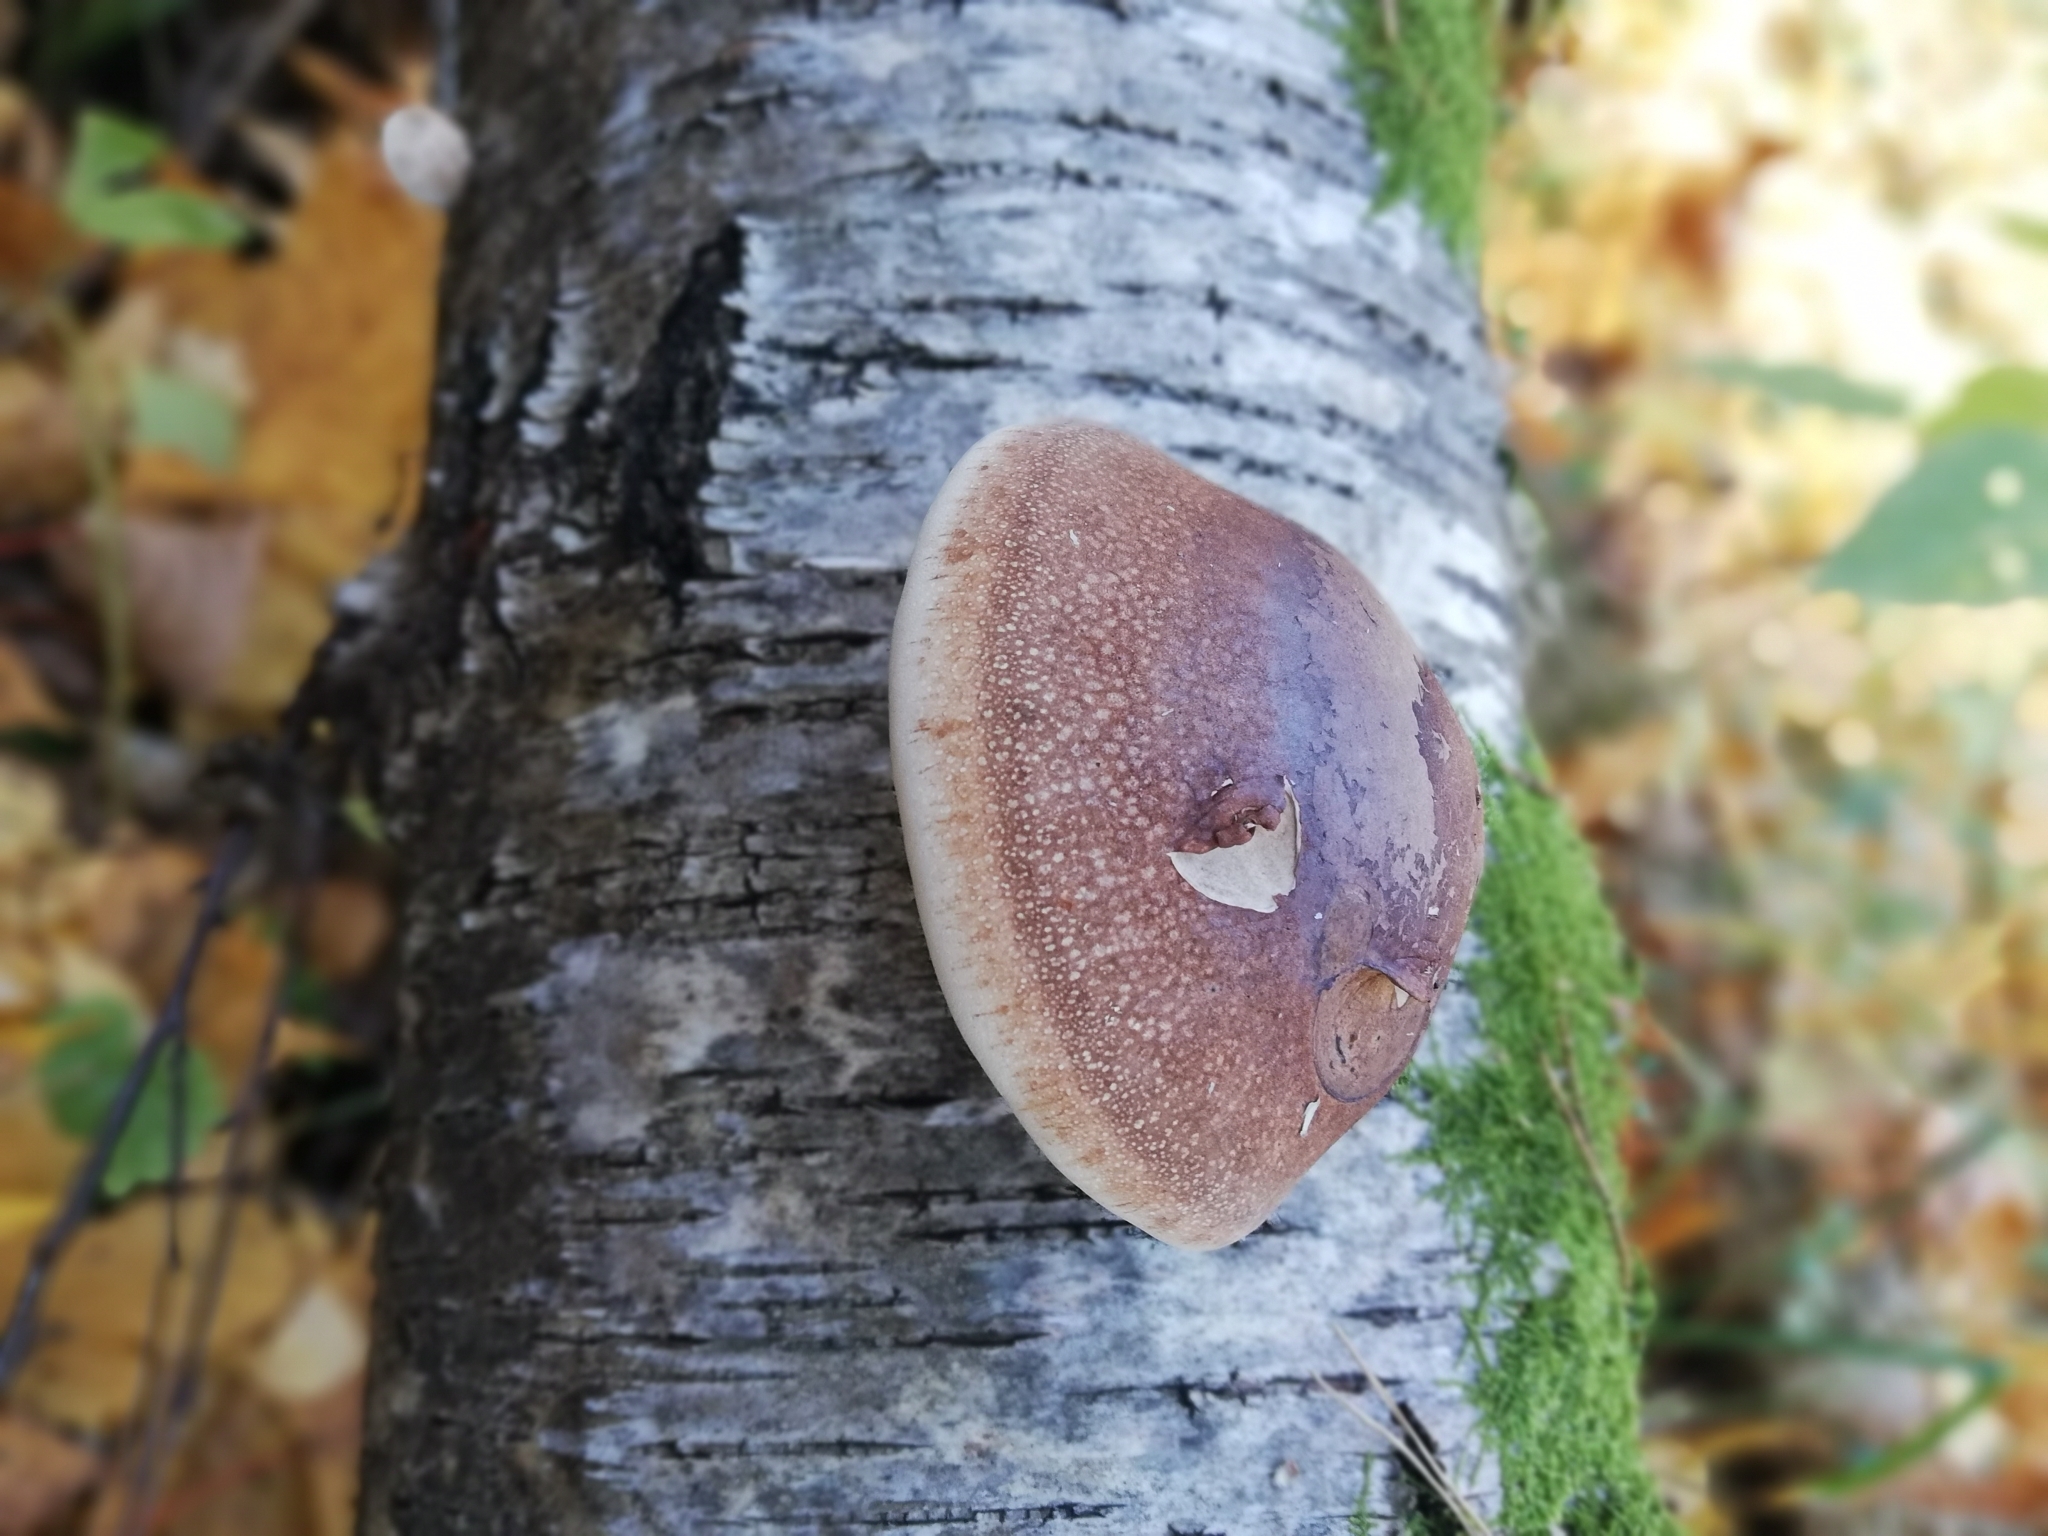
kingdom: Fungi
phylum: Basidiomycota
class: Agaricomycetes
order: Polyporales
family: Fomitopsidaceae
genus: Fomitopsis
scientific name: Fomitopsis betulina
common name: Birch polypore
